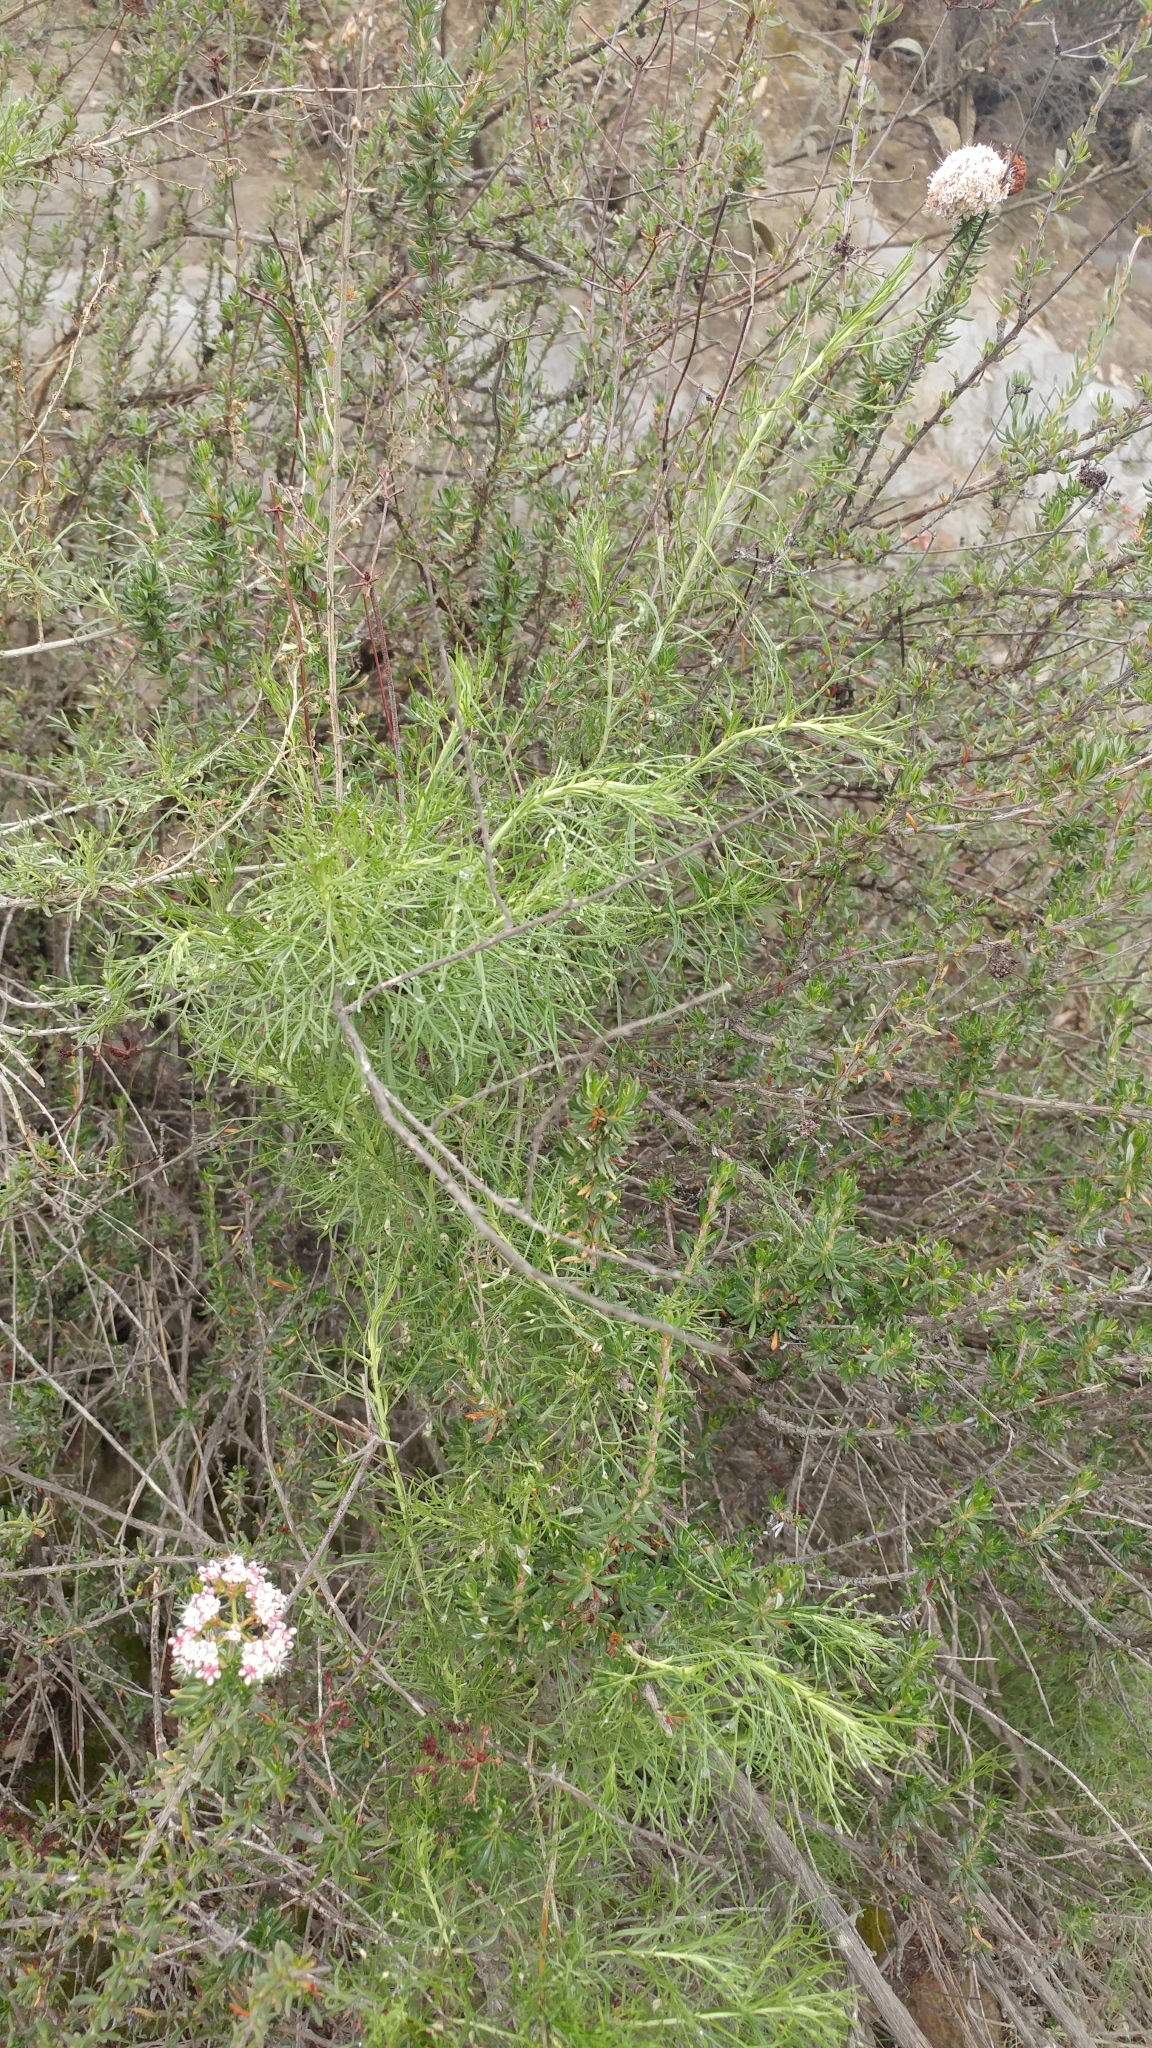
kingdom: Plantae
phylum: Tracheophyta
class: Magnoliopsida
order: Caryophyllales
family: Polygonaceae
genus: Eriogonum
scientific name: Eriogonum fasciculatum
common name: California wild buckwheat
